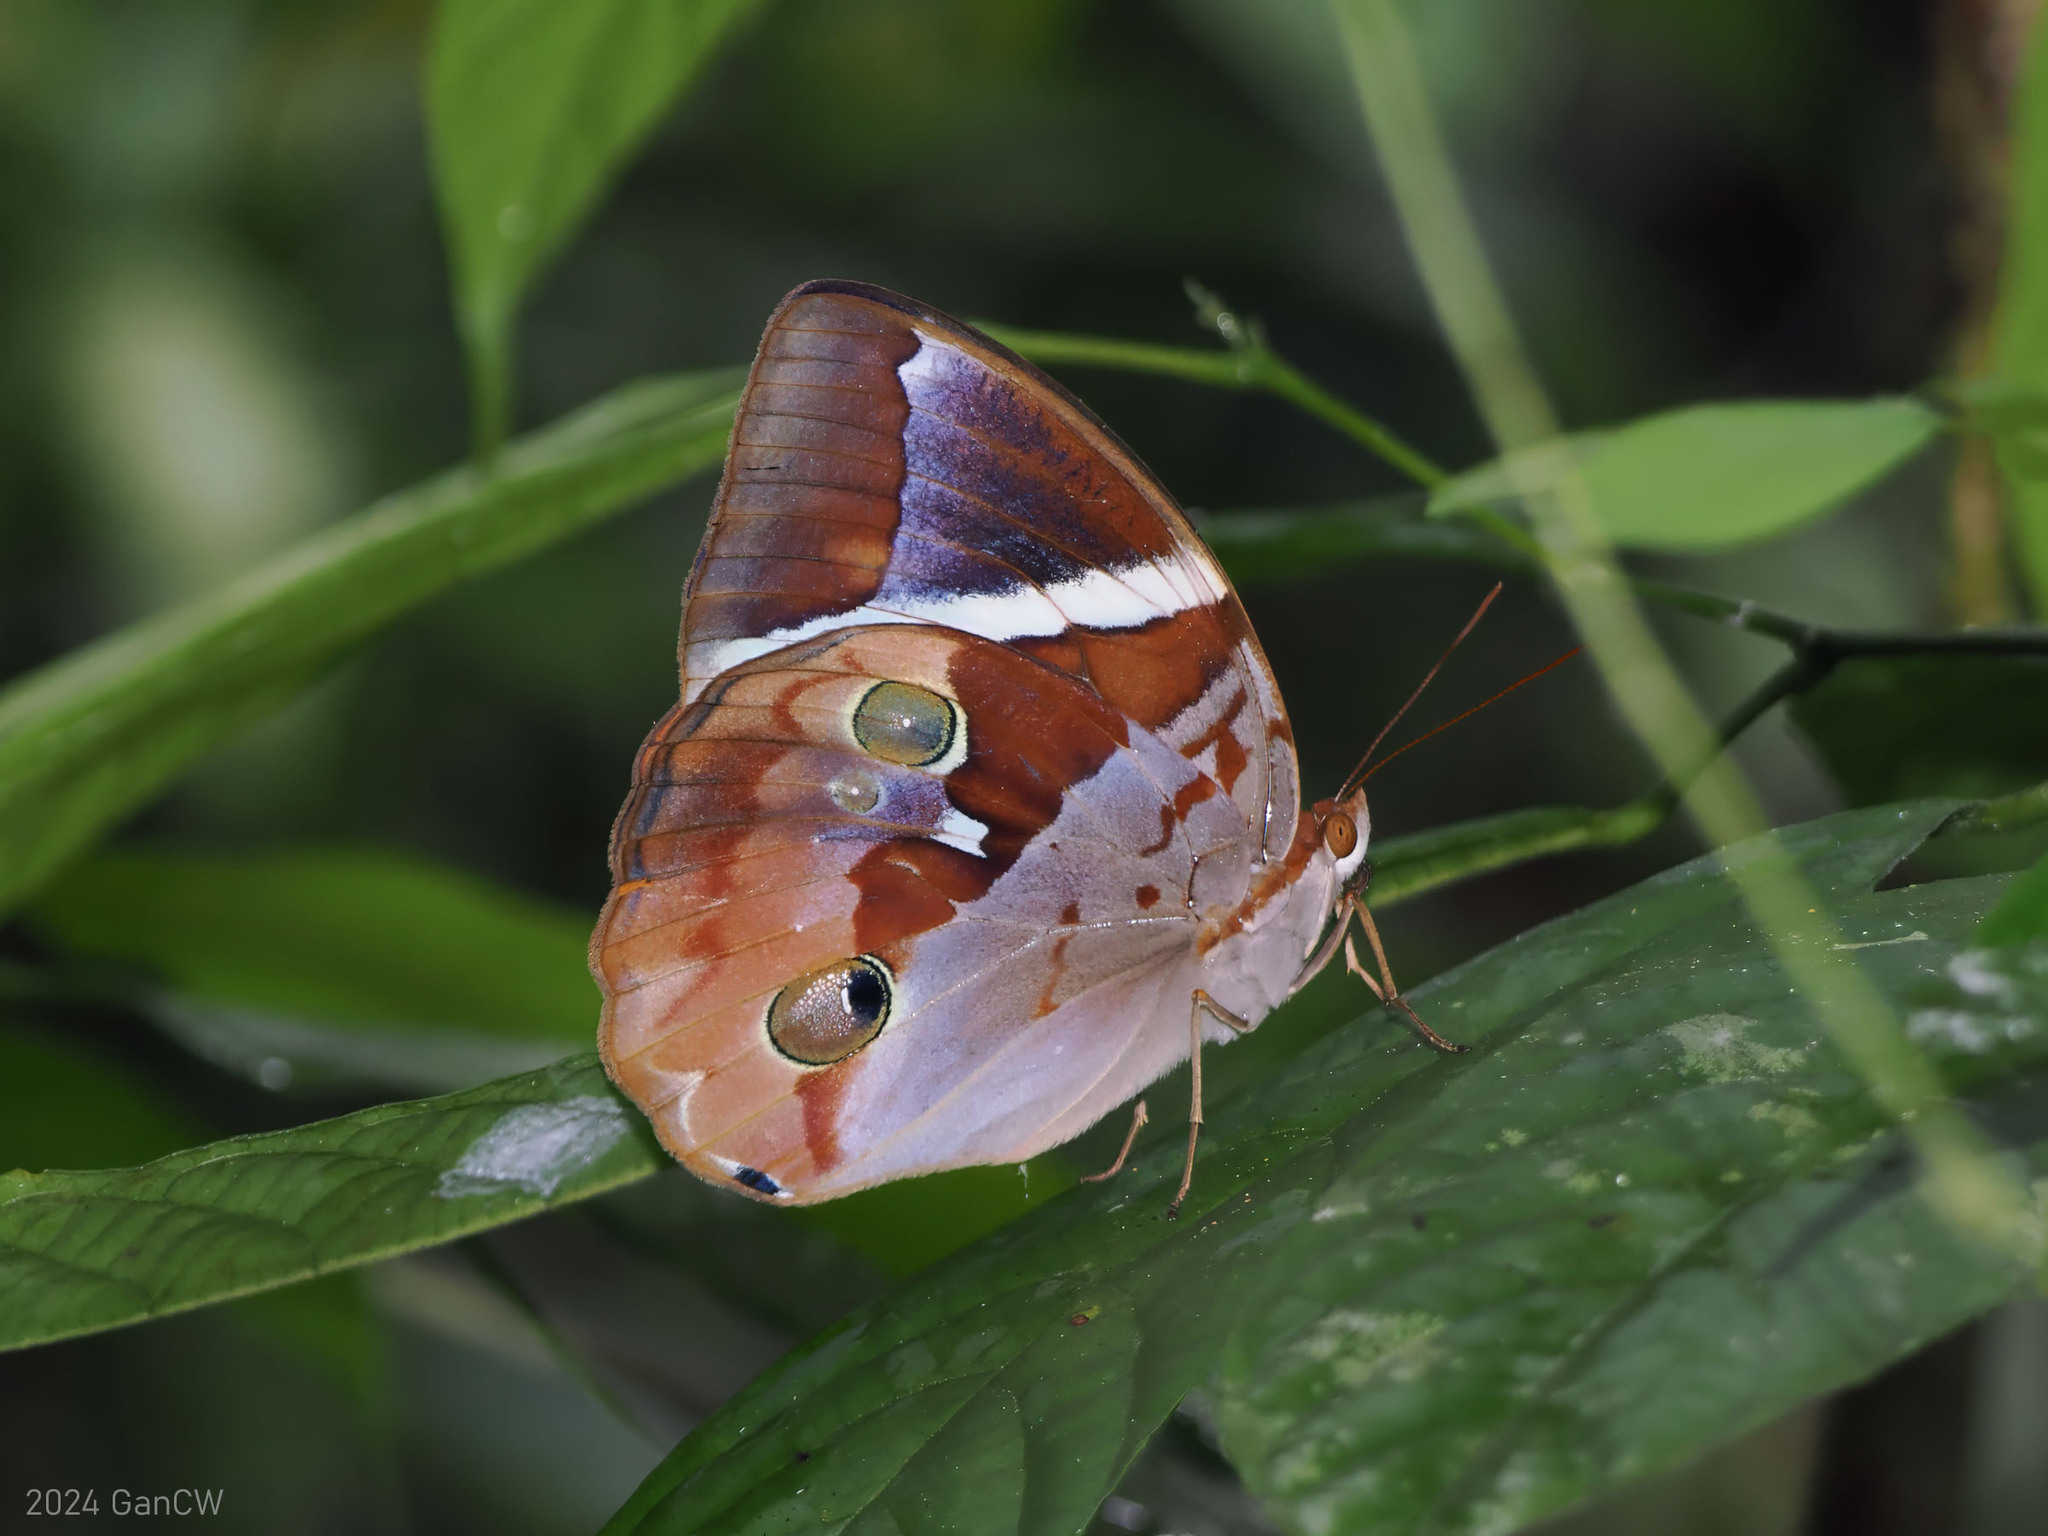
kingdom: Animalia
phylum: Arthropoda
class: Insecta
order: Lepidoptera
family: Nymphalidae
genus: Thauria
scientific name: Thauria aliris
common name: Tufted jungle king
